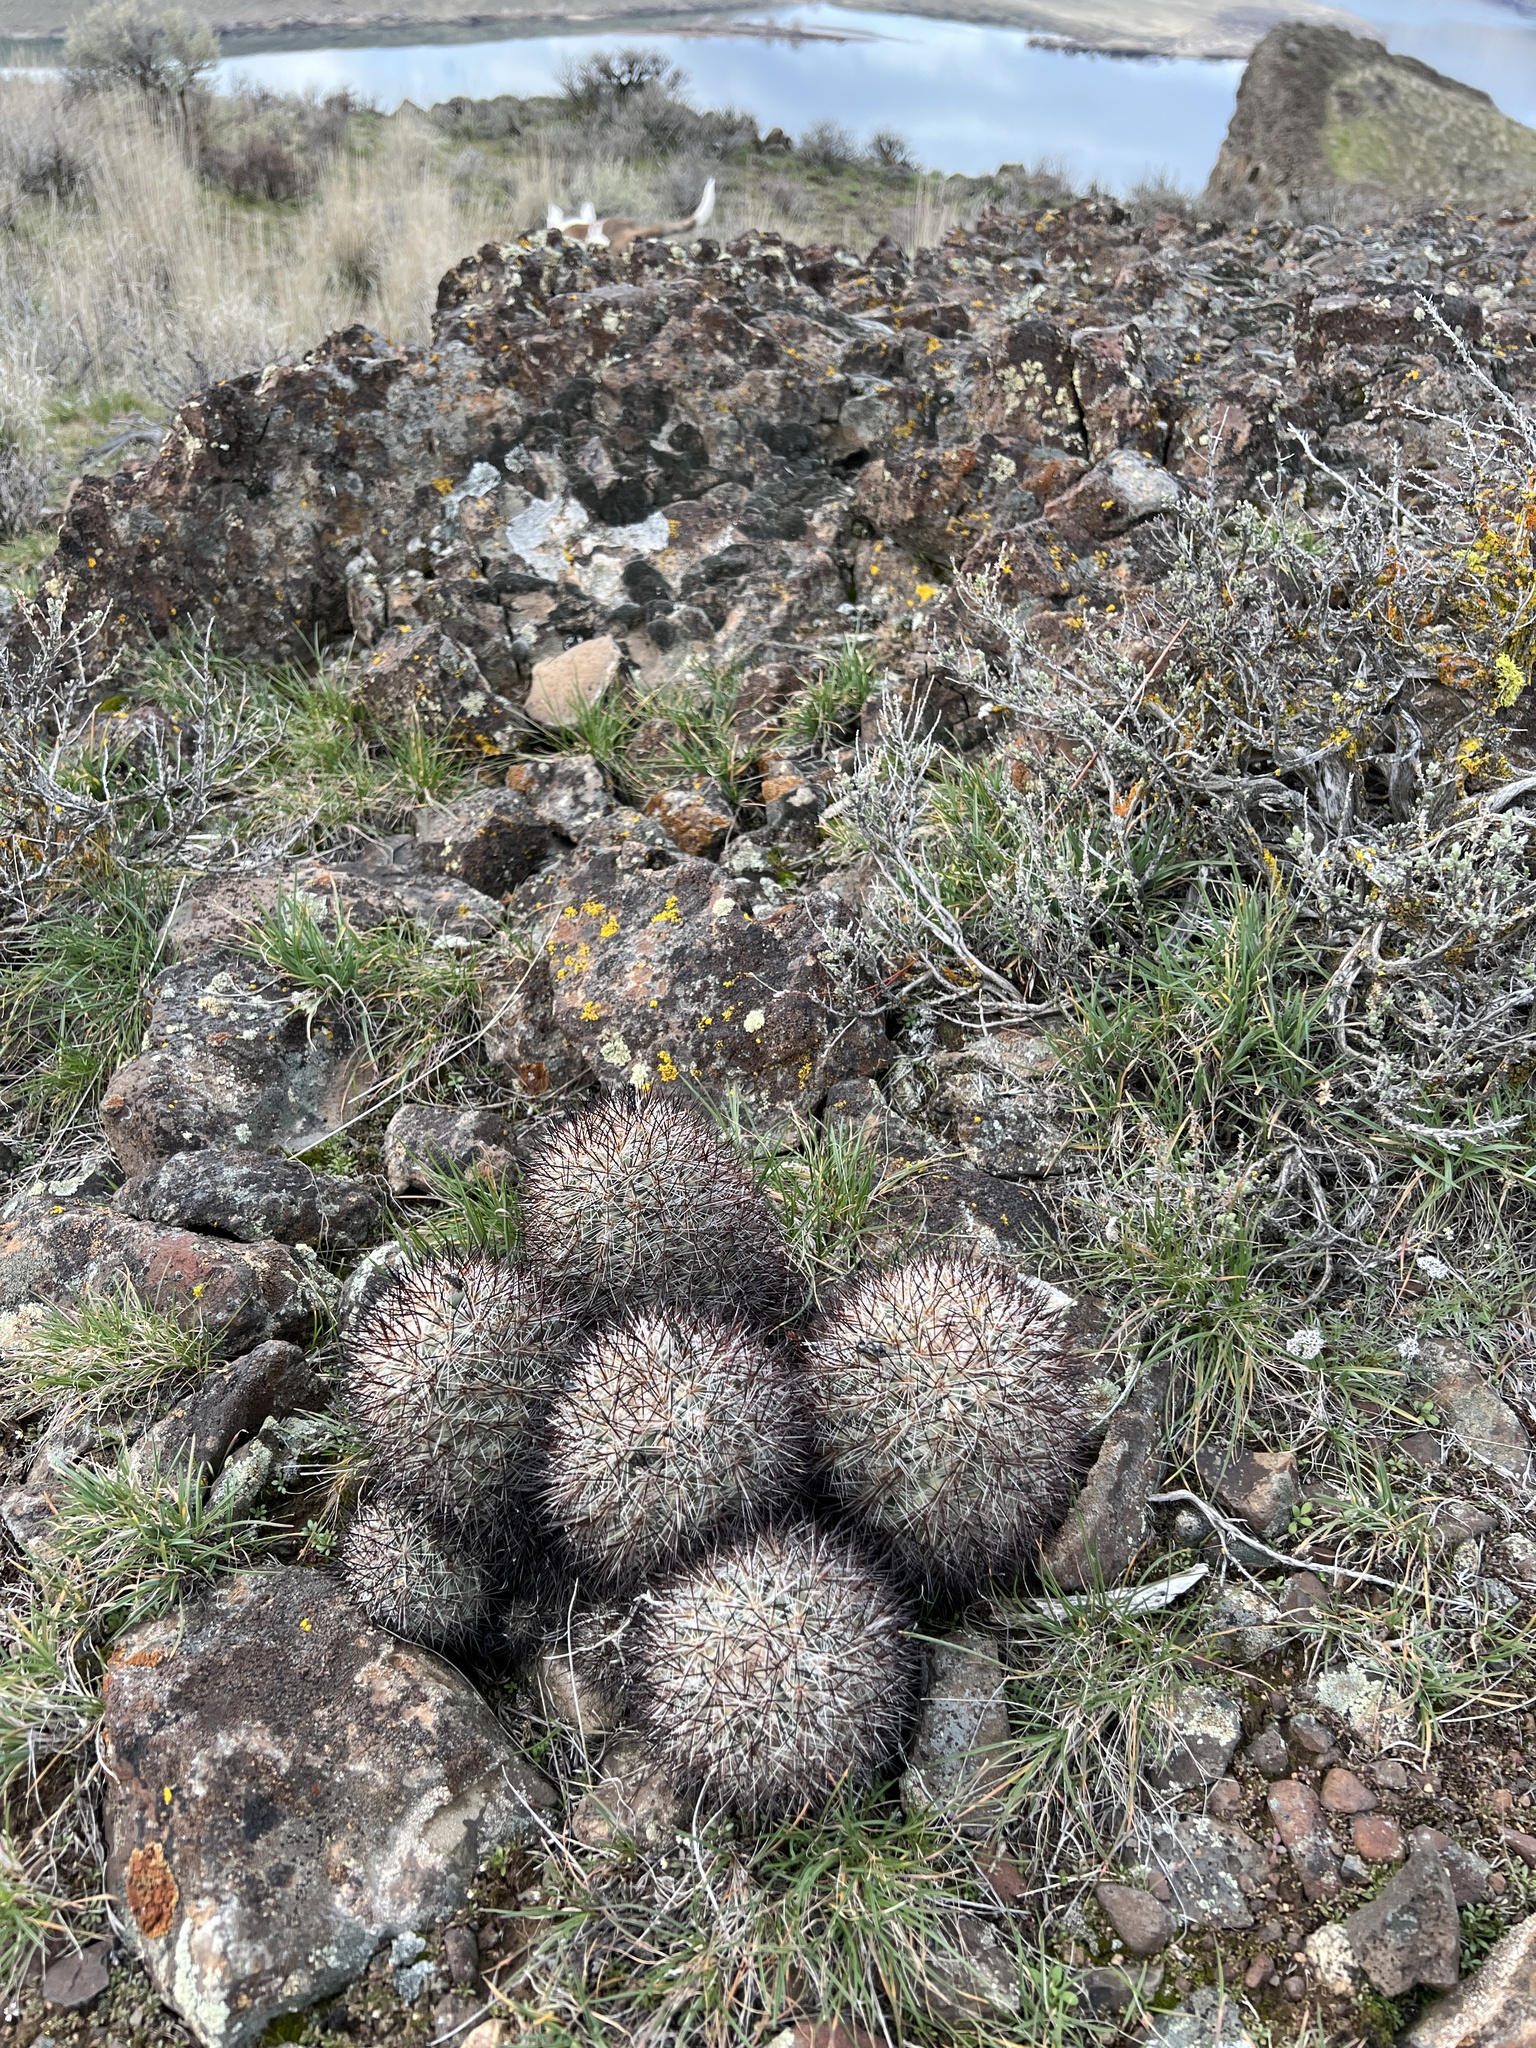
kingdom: Plantae
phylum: Tracheophyta
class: Magnoliopsida
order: Caryophyllales
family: Cactaceae
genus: Pediocactus
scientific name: Pediocactus nigrispinus
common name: Simpson's hedgehog cactus
